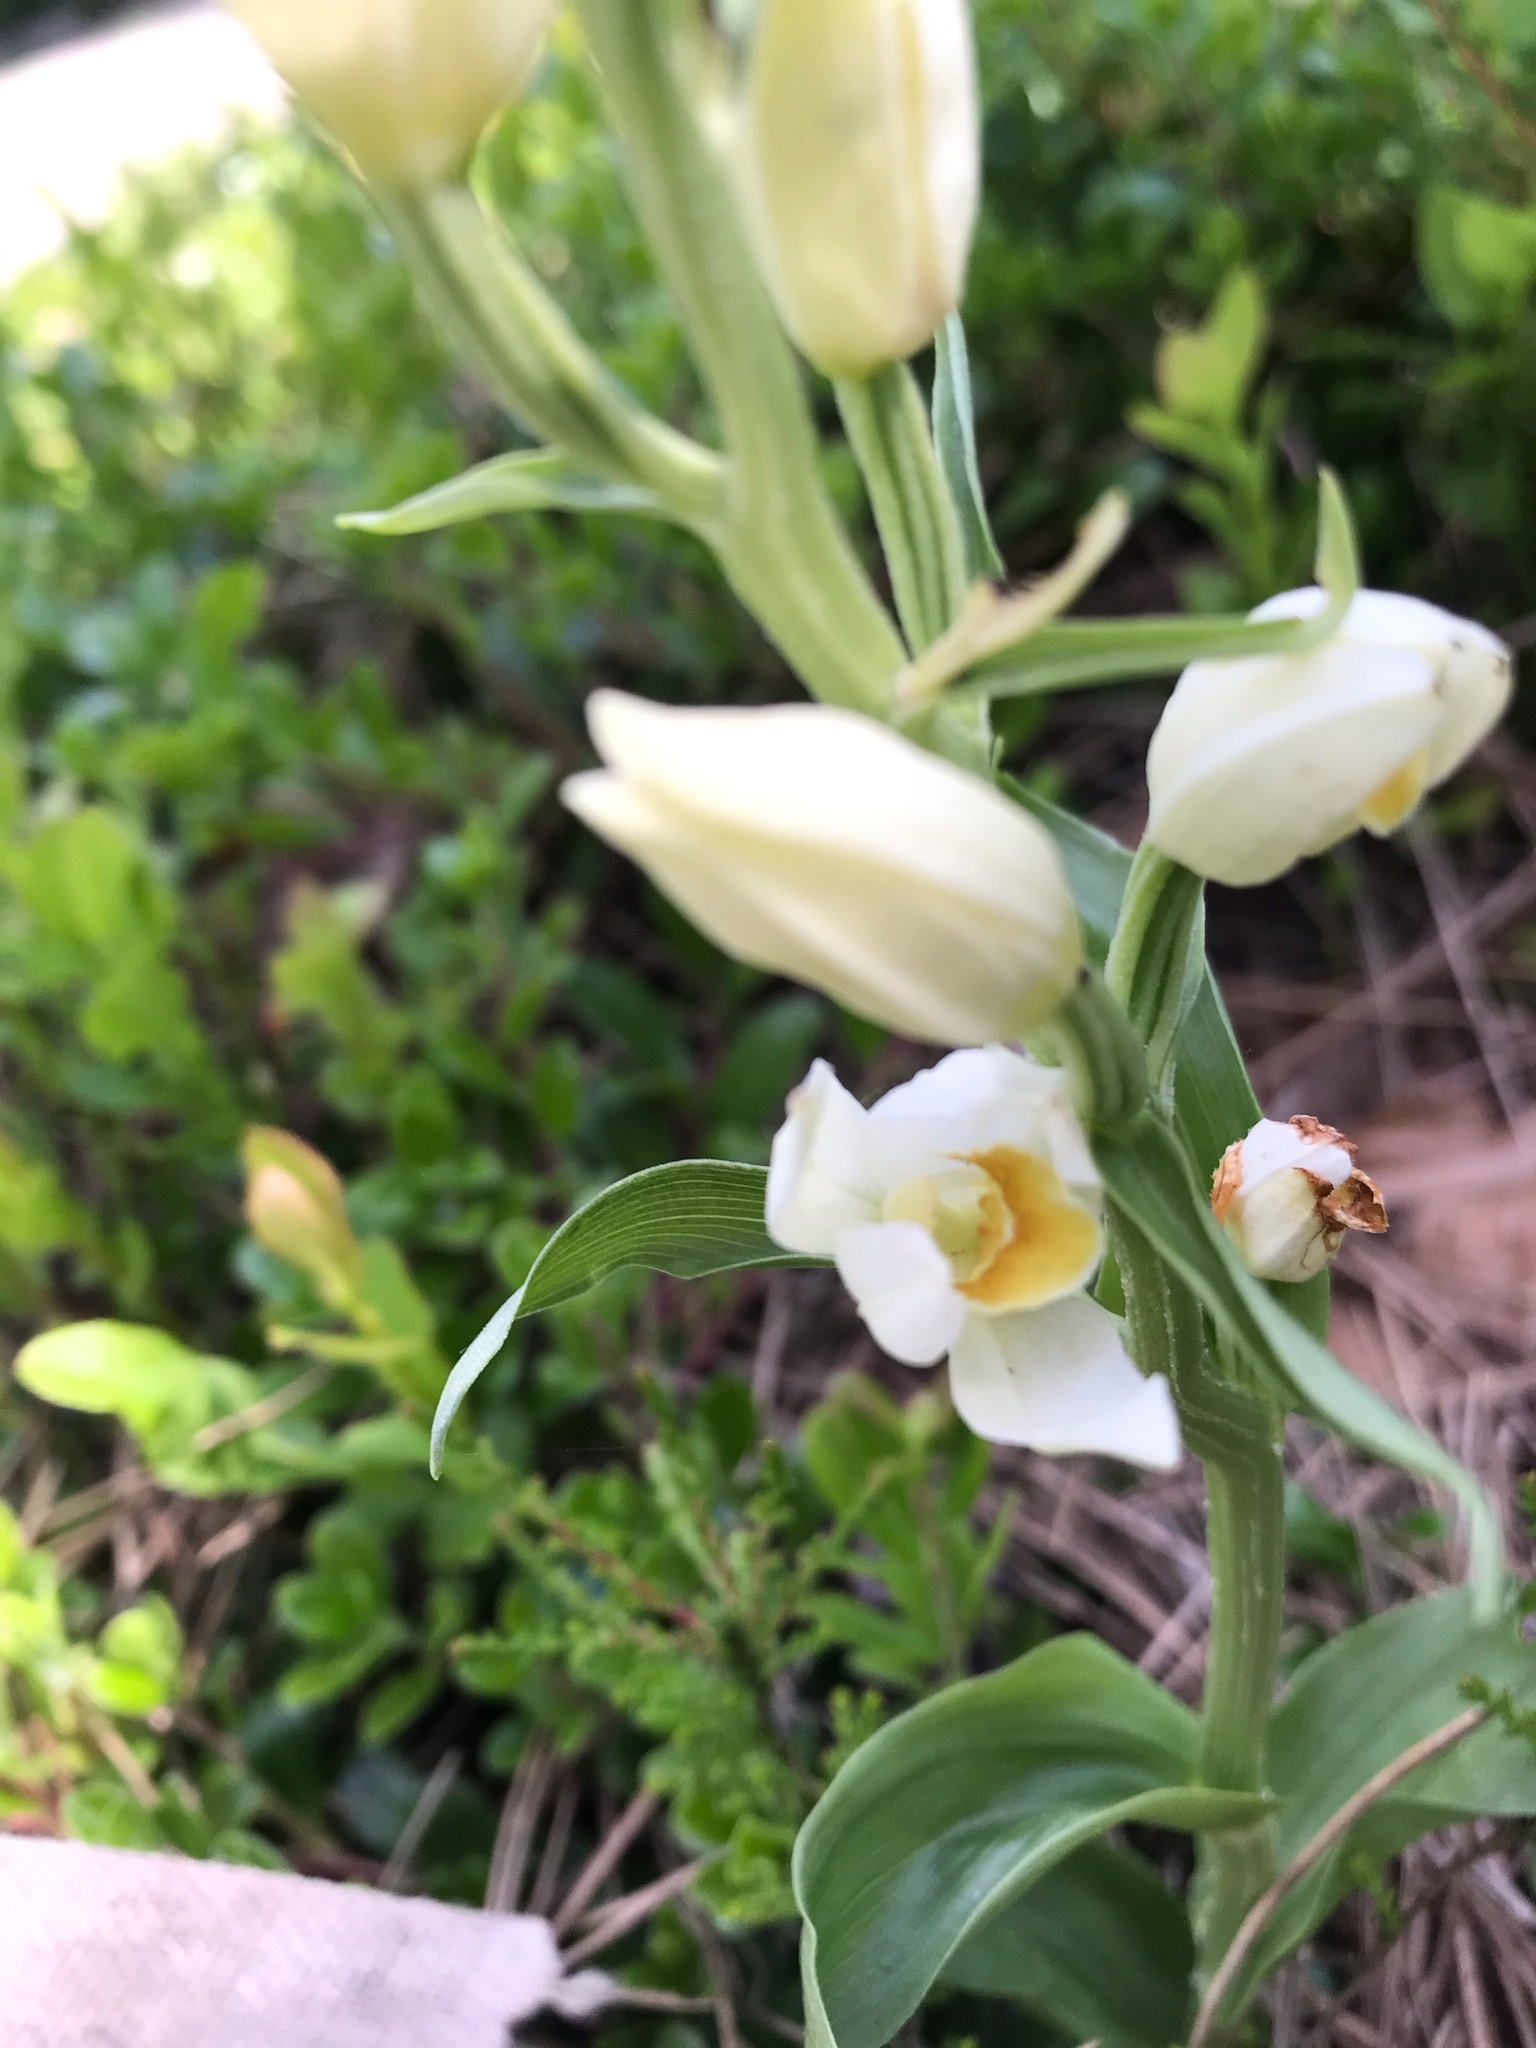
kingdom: Plantae
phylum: Tracheophyta
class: Liliopsida
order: Asparagales
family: Orchidaceae
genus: Cephalanthera
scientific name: Cephalanthera damasonium
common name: White helleborine
